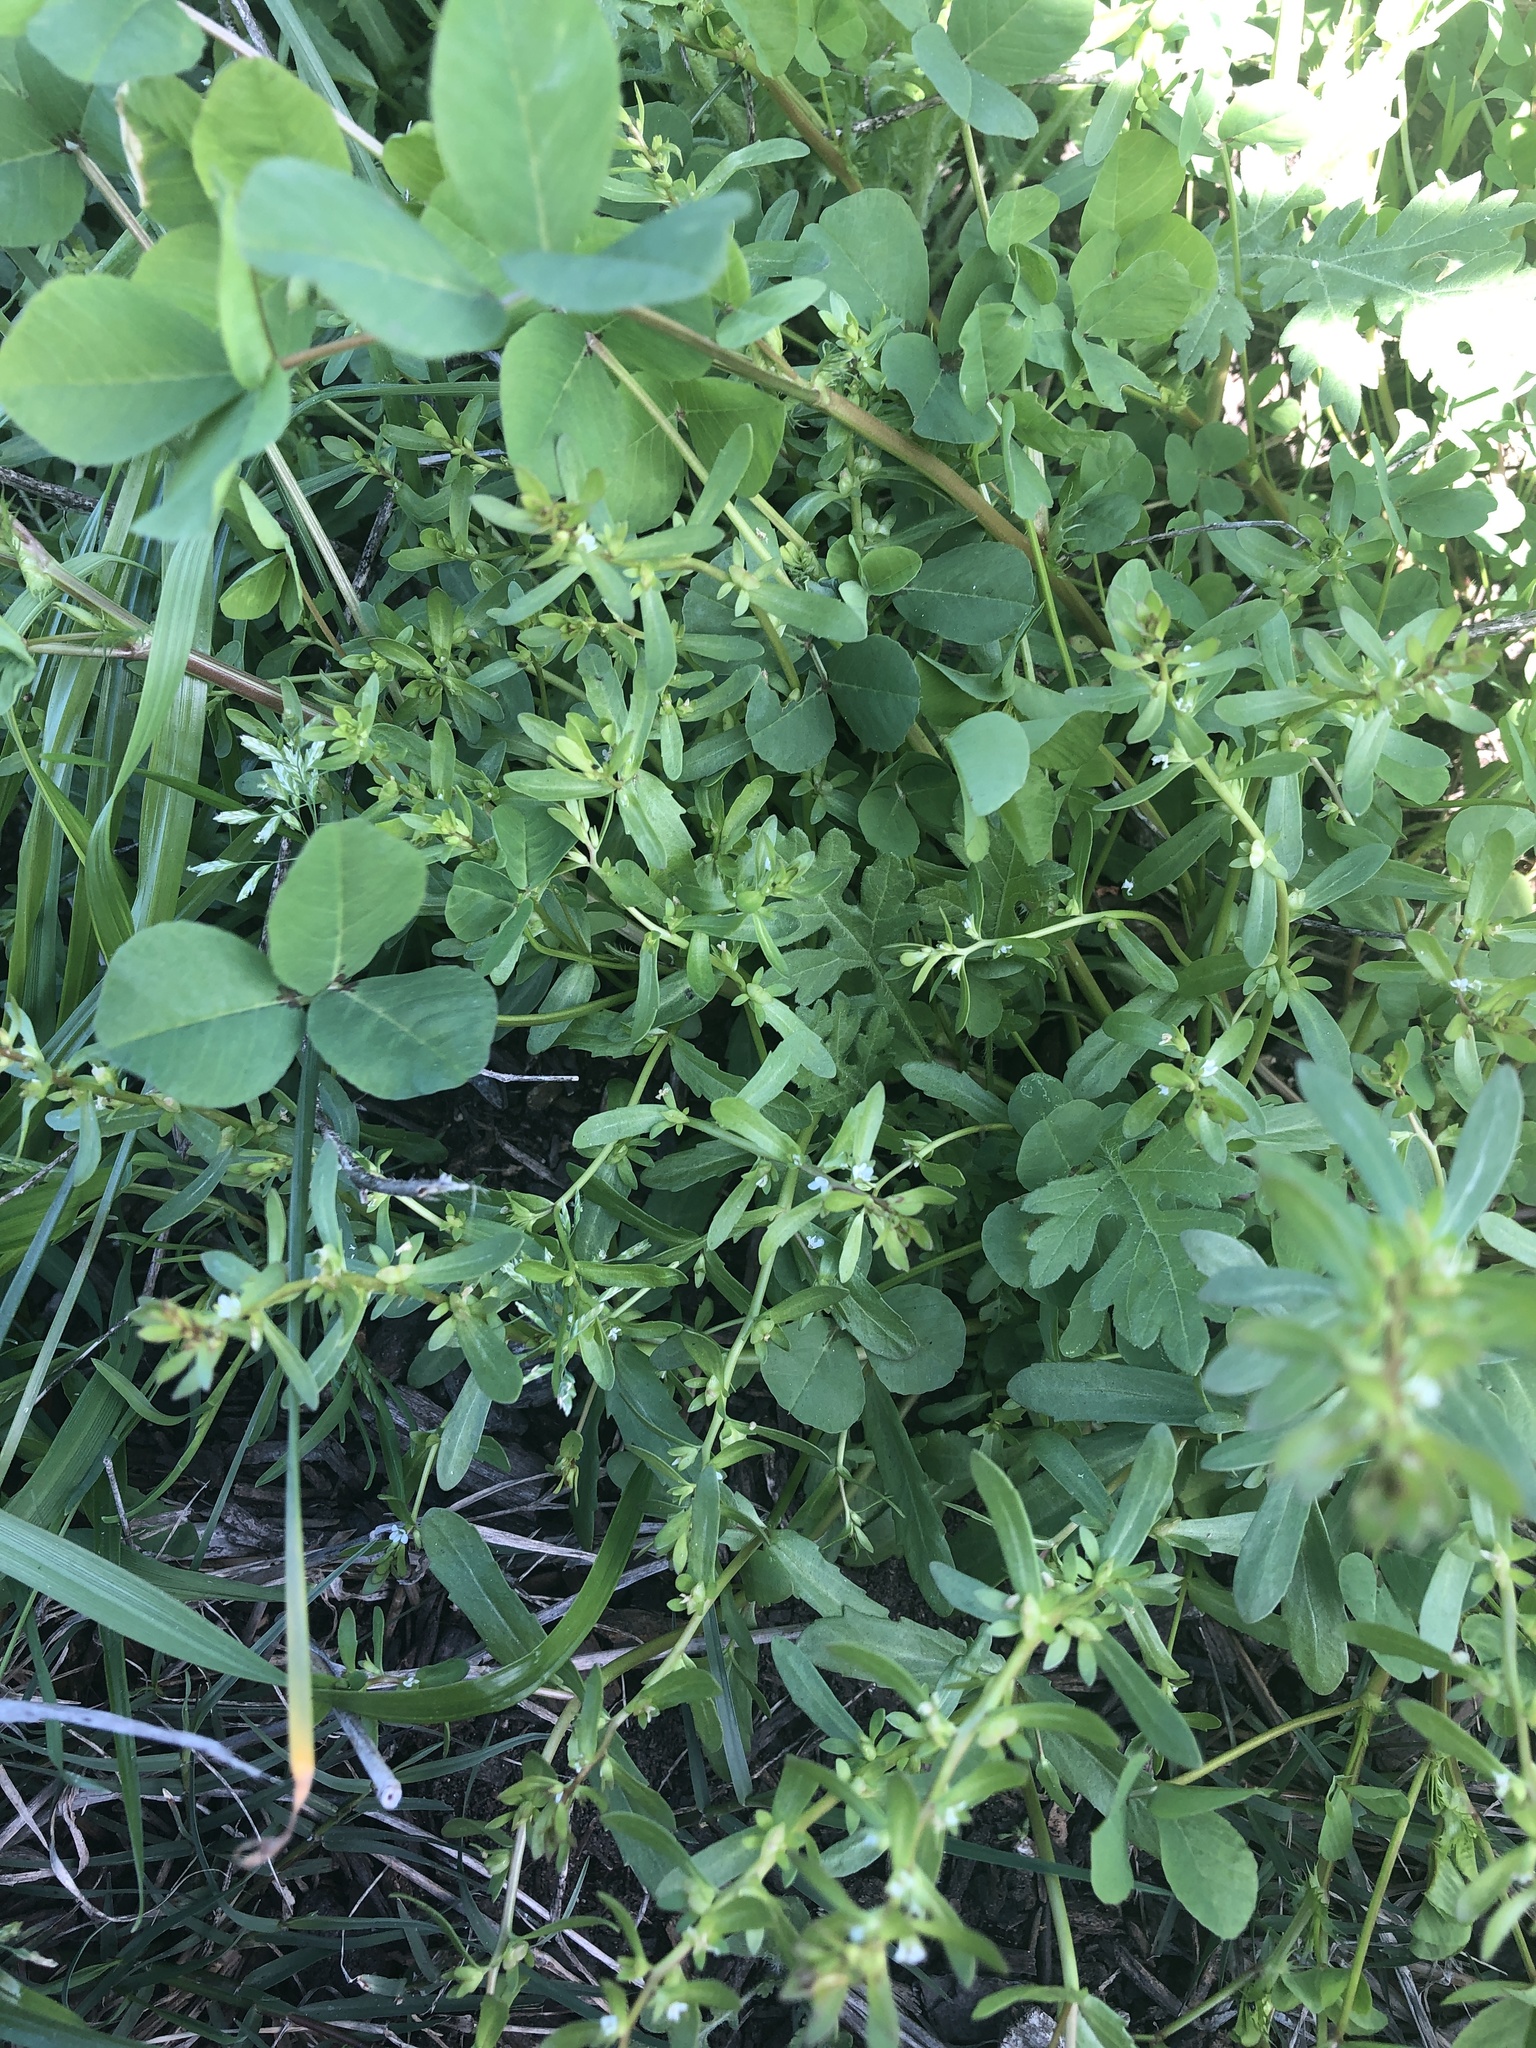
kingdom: Plantae
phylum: Tracheophyta
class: Magnoliopsida
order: Lamiales
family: Plantaginaceae
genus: Veronica
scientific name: Veronica peregrina
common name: Neckweed
